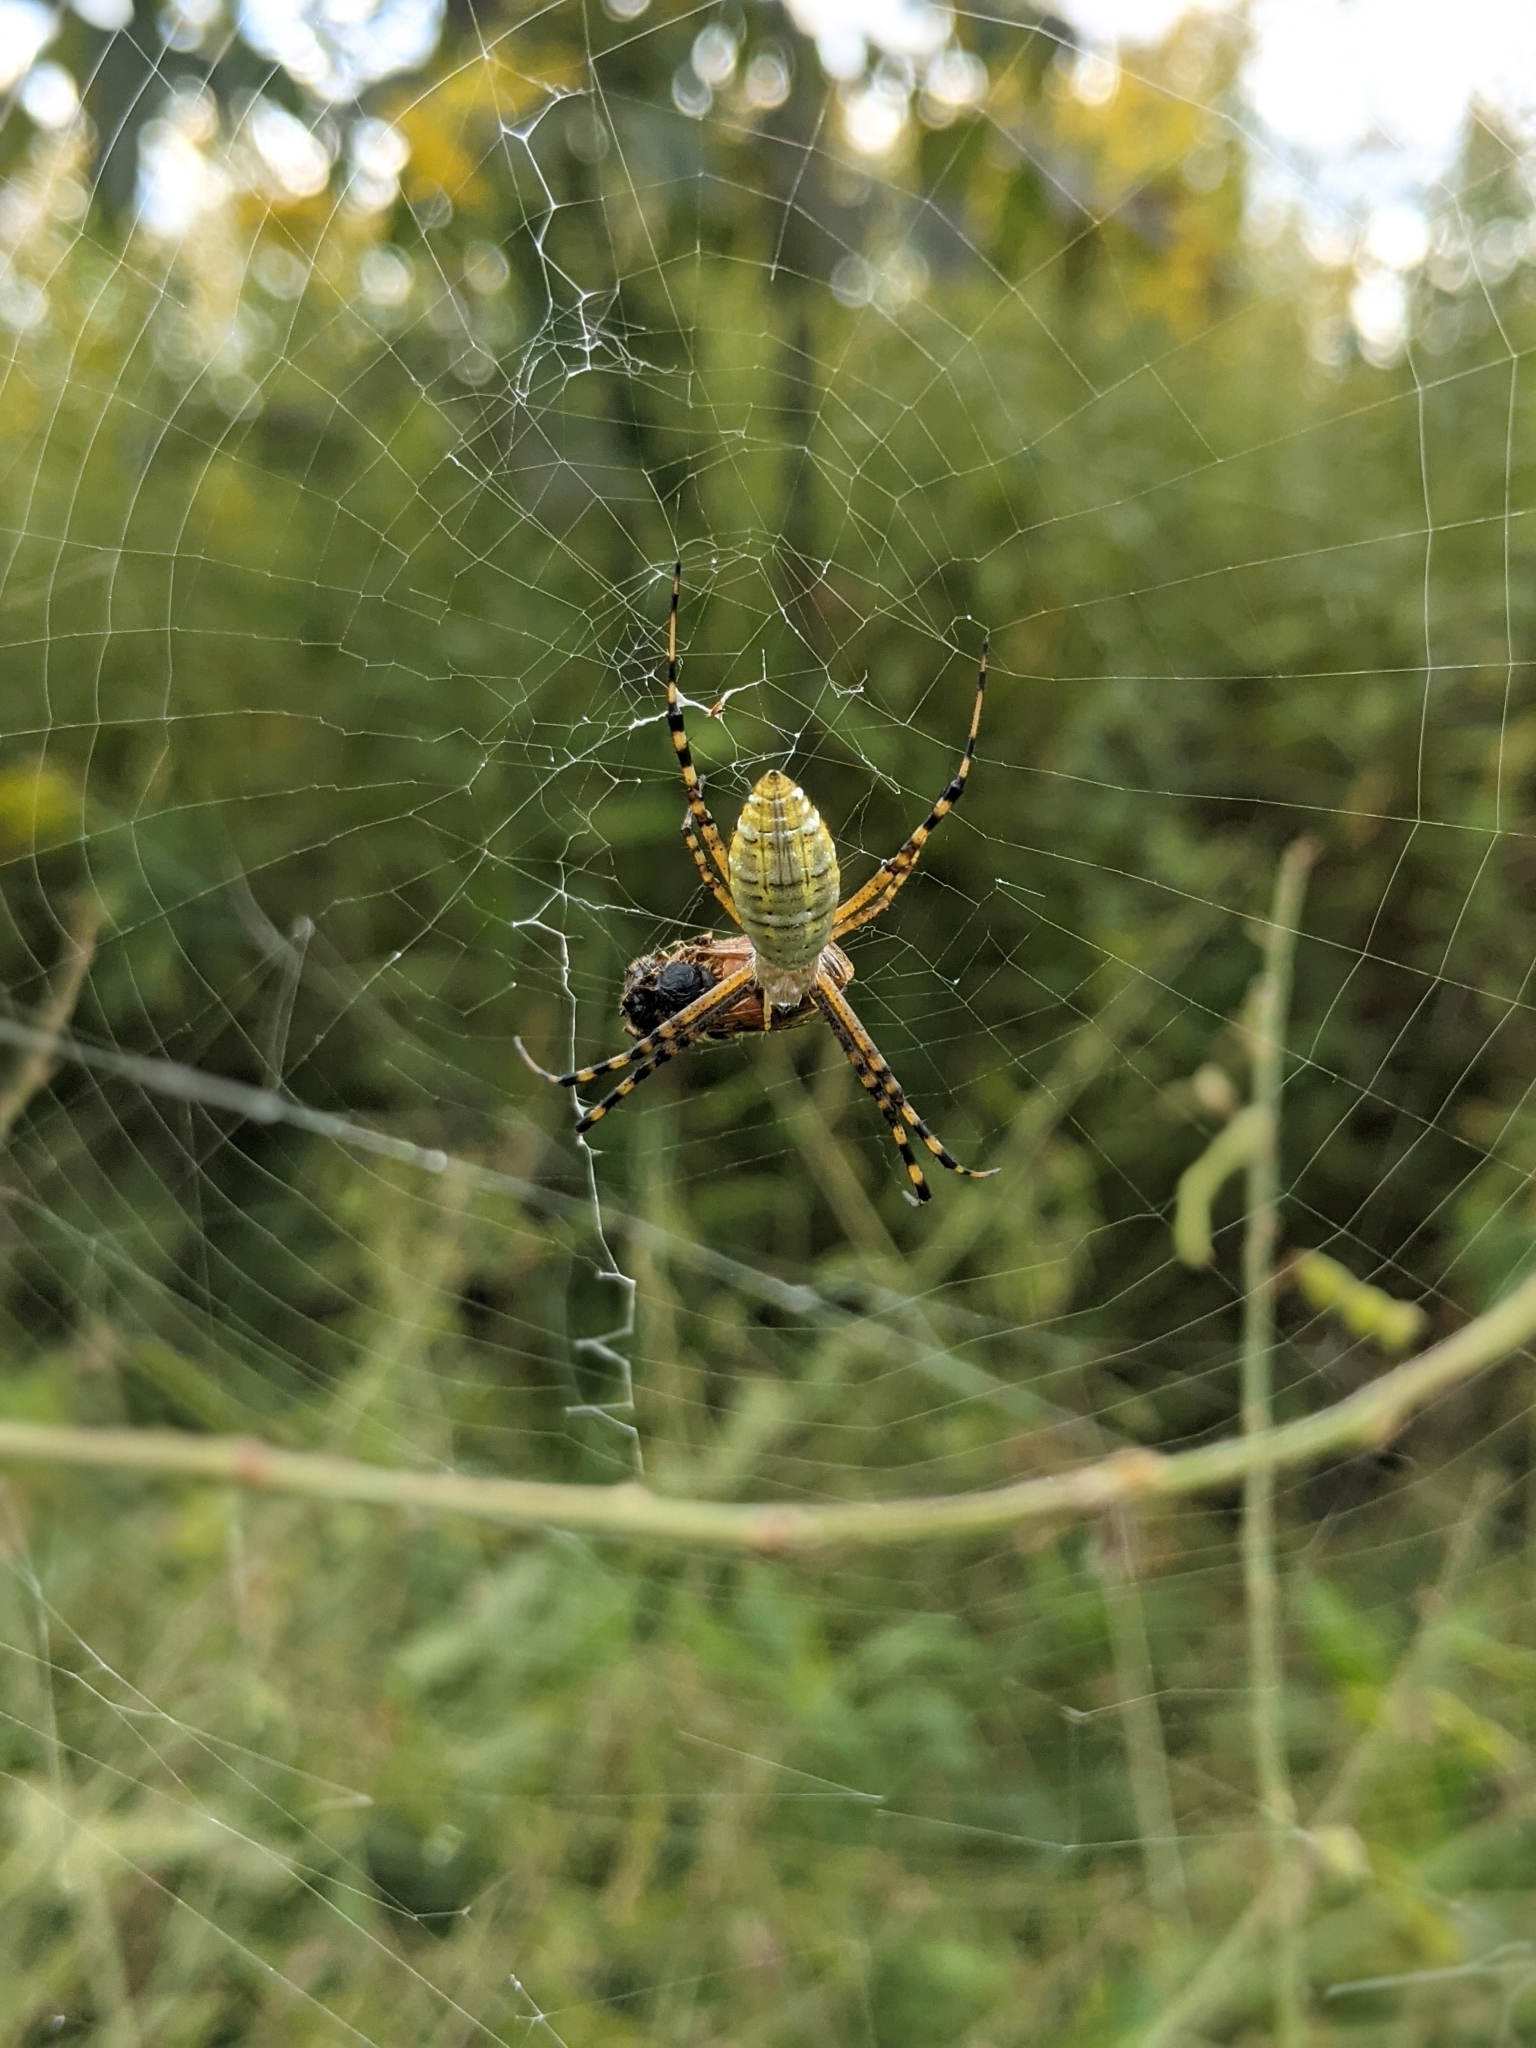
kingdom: Animalia
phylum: Arthropoda
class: Arachnida
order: Araneae
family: Araneidae
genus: Argiope
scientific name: Argiope trifasciata
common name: Banded garden spider
